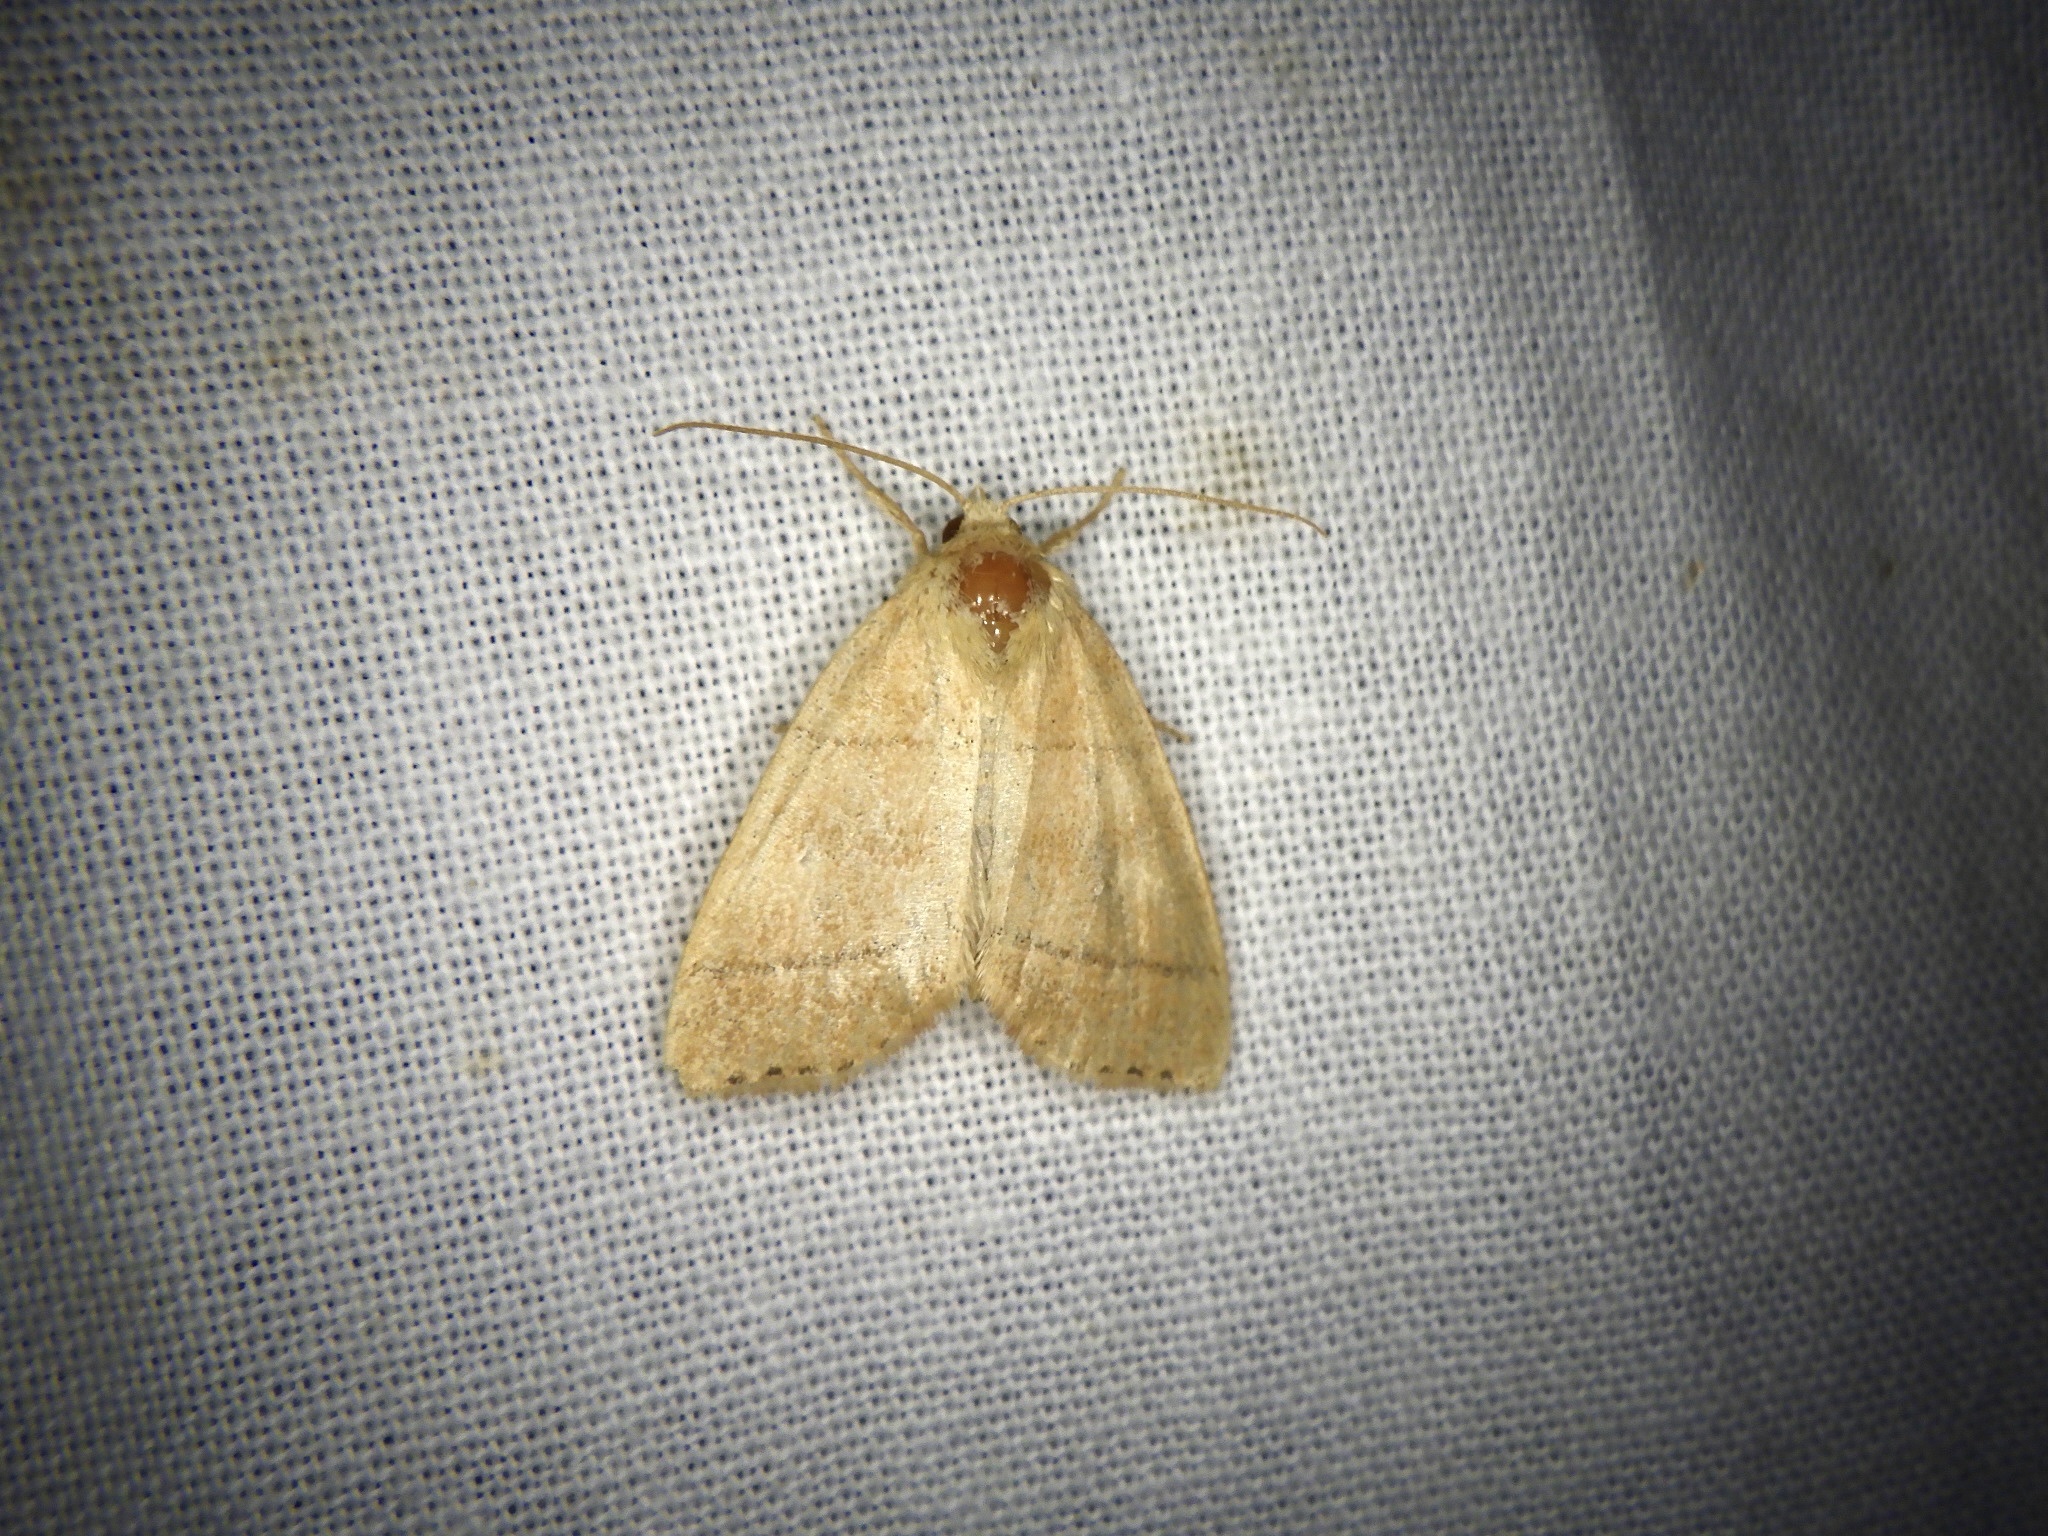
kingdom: Animalia
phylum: Arthropoda
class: Insecta
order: Lepidoptera
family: Noctuidae
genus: Enargia
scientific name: Enargia flavata
